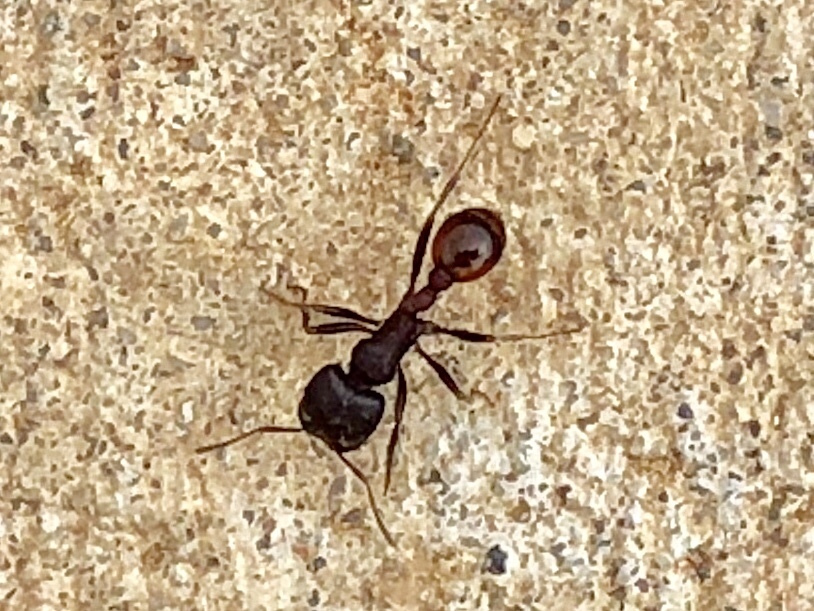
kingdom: Animalia
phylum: Arthropoda
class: Insecta
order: Hymenoptera
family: Formicidae
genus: Pogonomyrmex
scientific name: Pogonomyrmex rugosus
